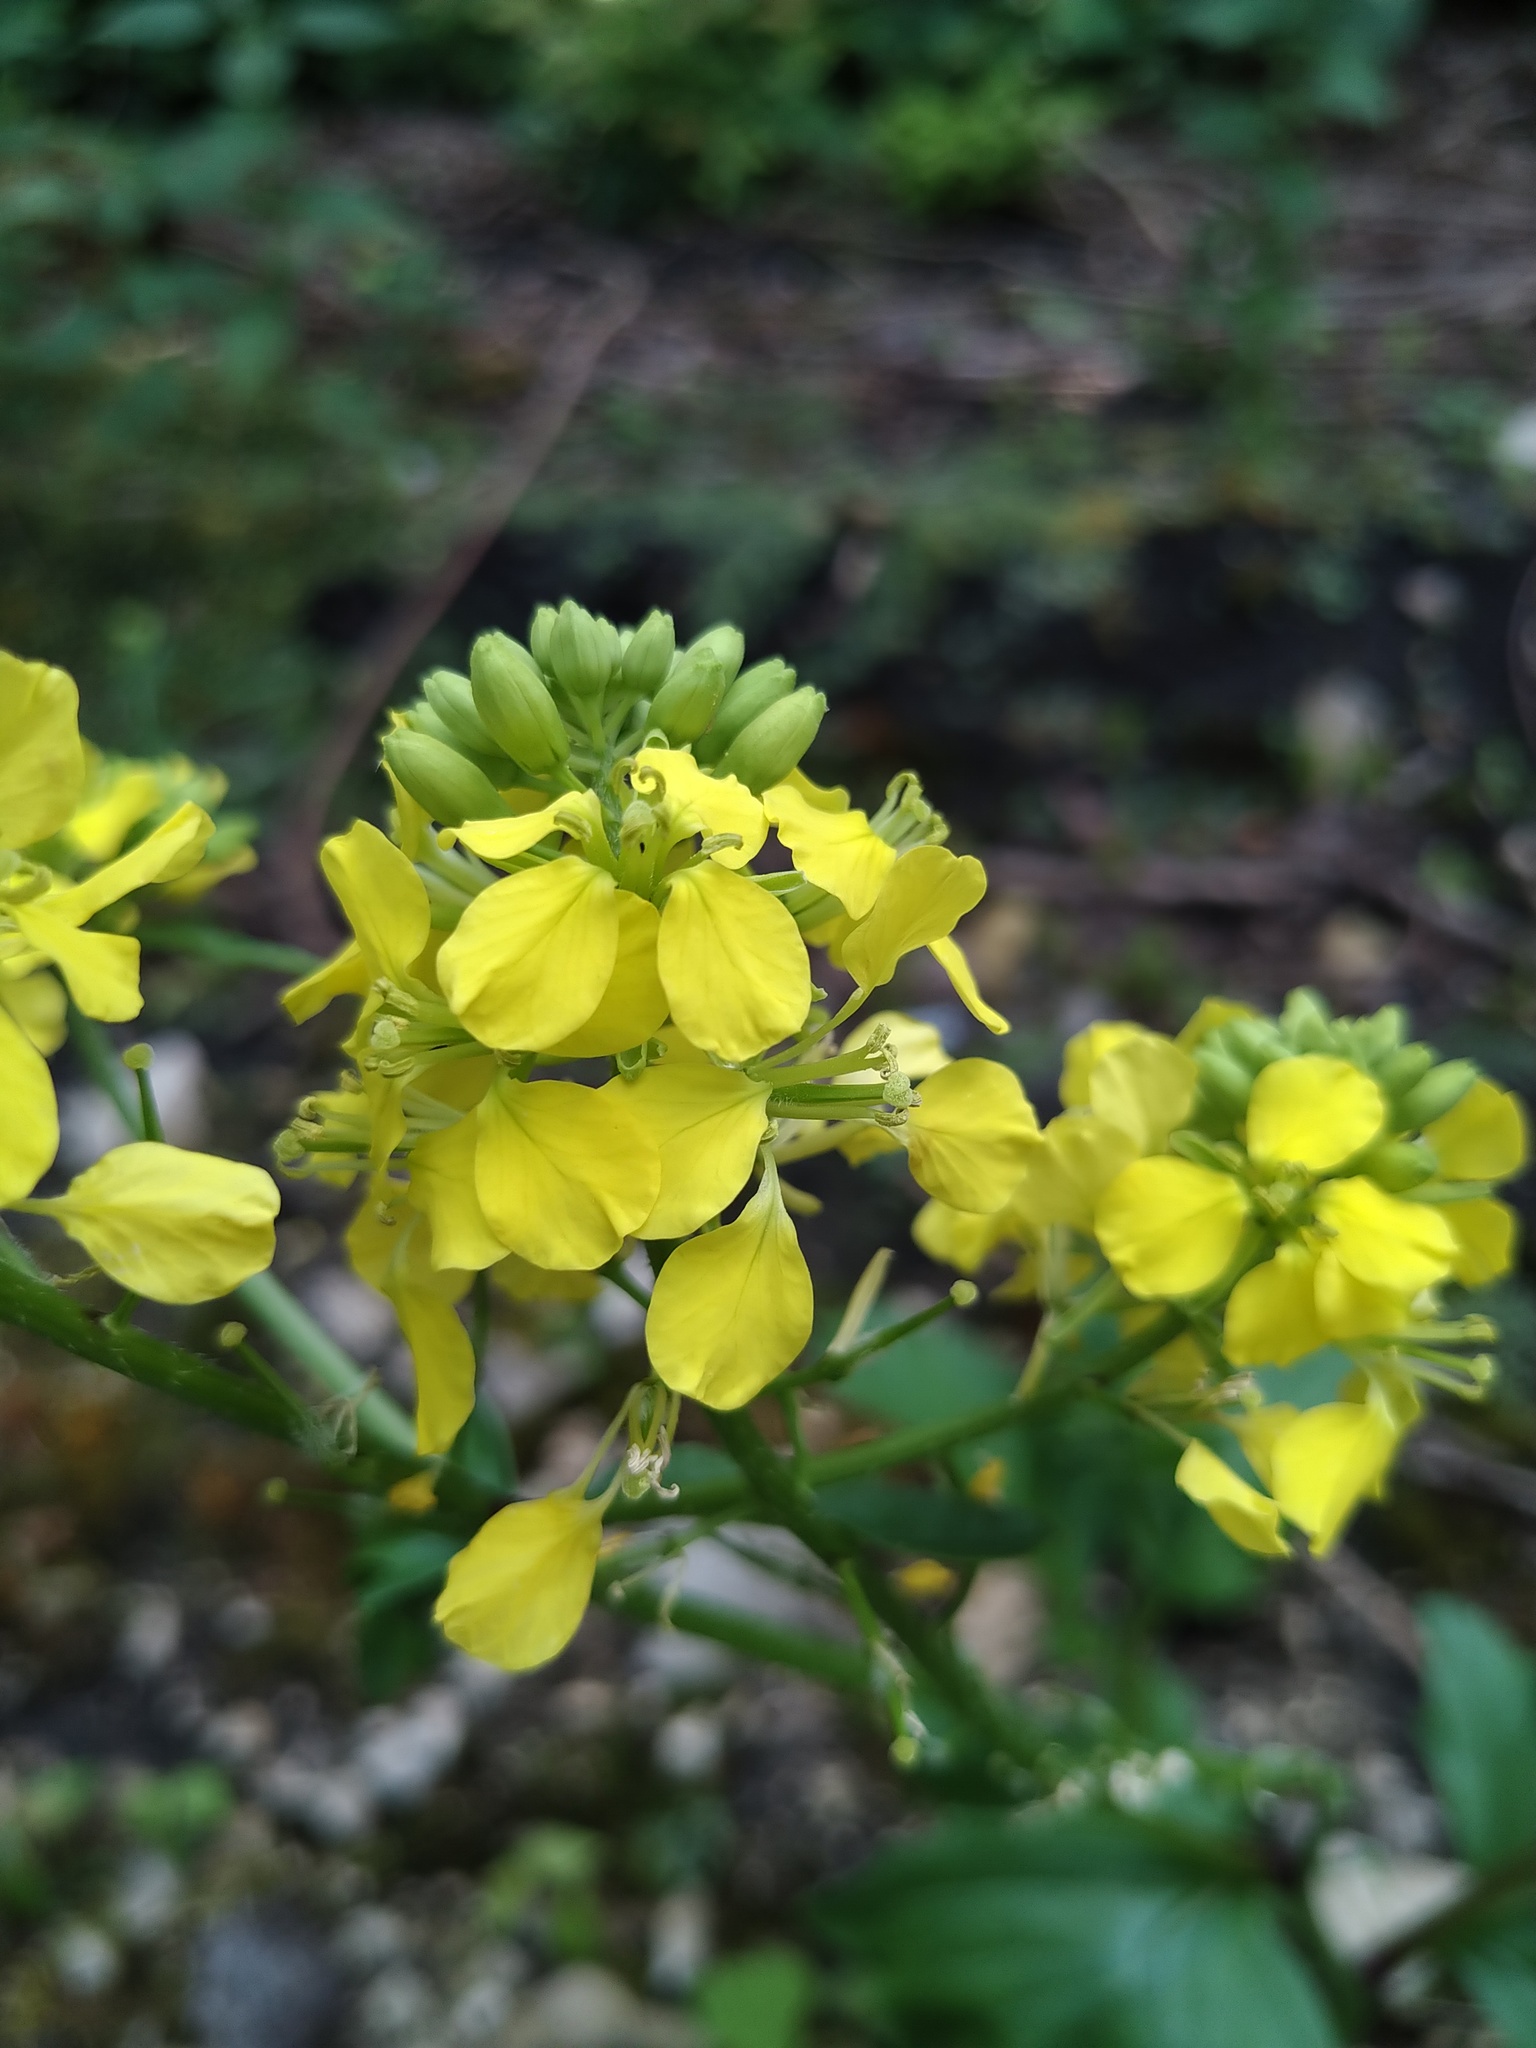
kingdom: Plantae
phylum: Tracheophyta
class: Magnoliopsida
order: Brassicales
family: Brassicaceae
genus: Sinapis
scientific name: Sinapis arvensis
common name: Charlock
